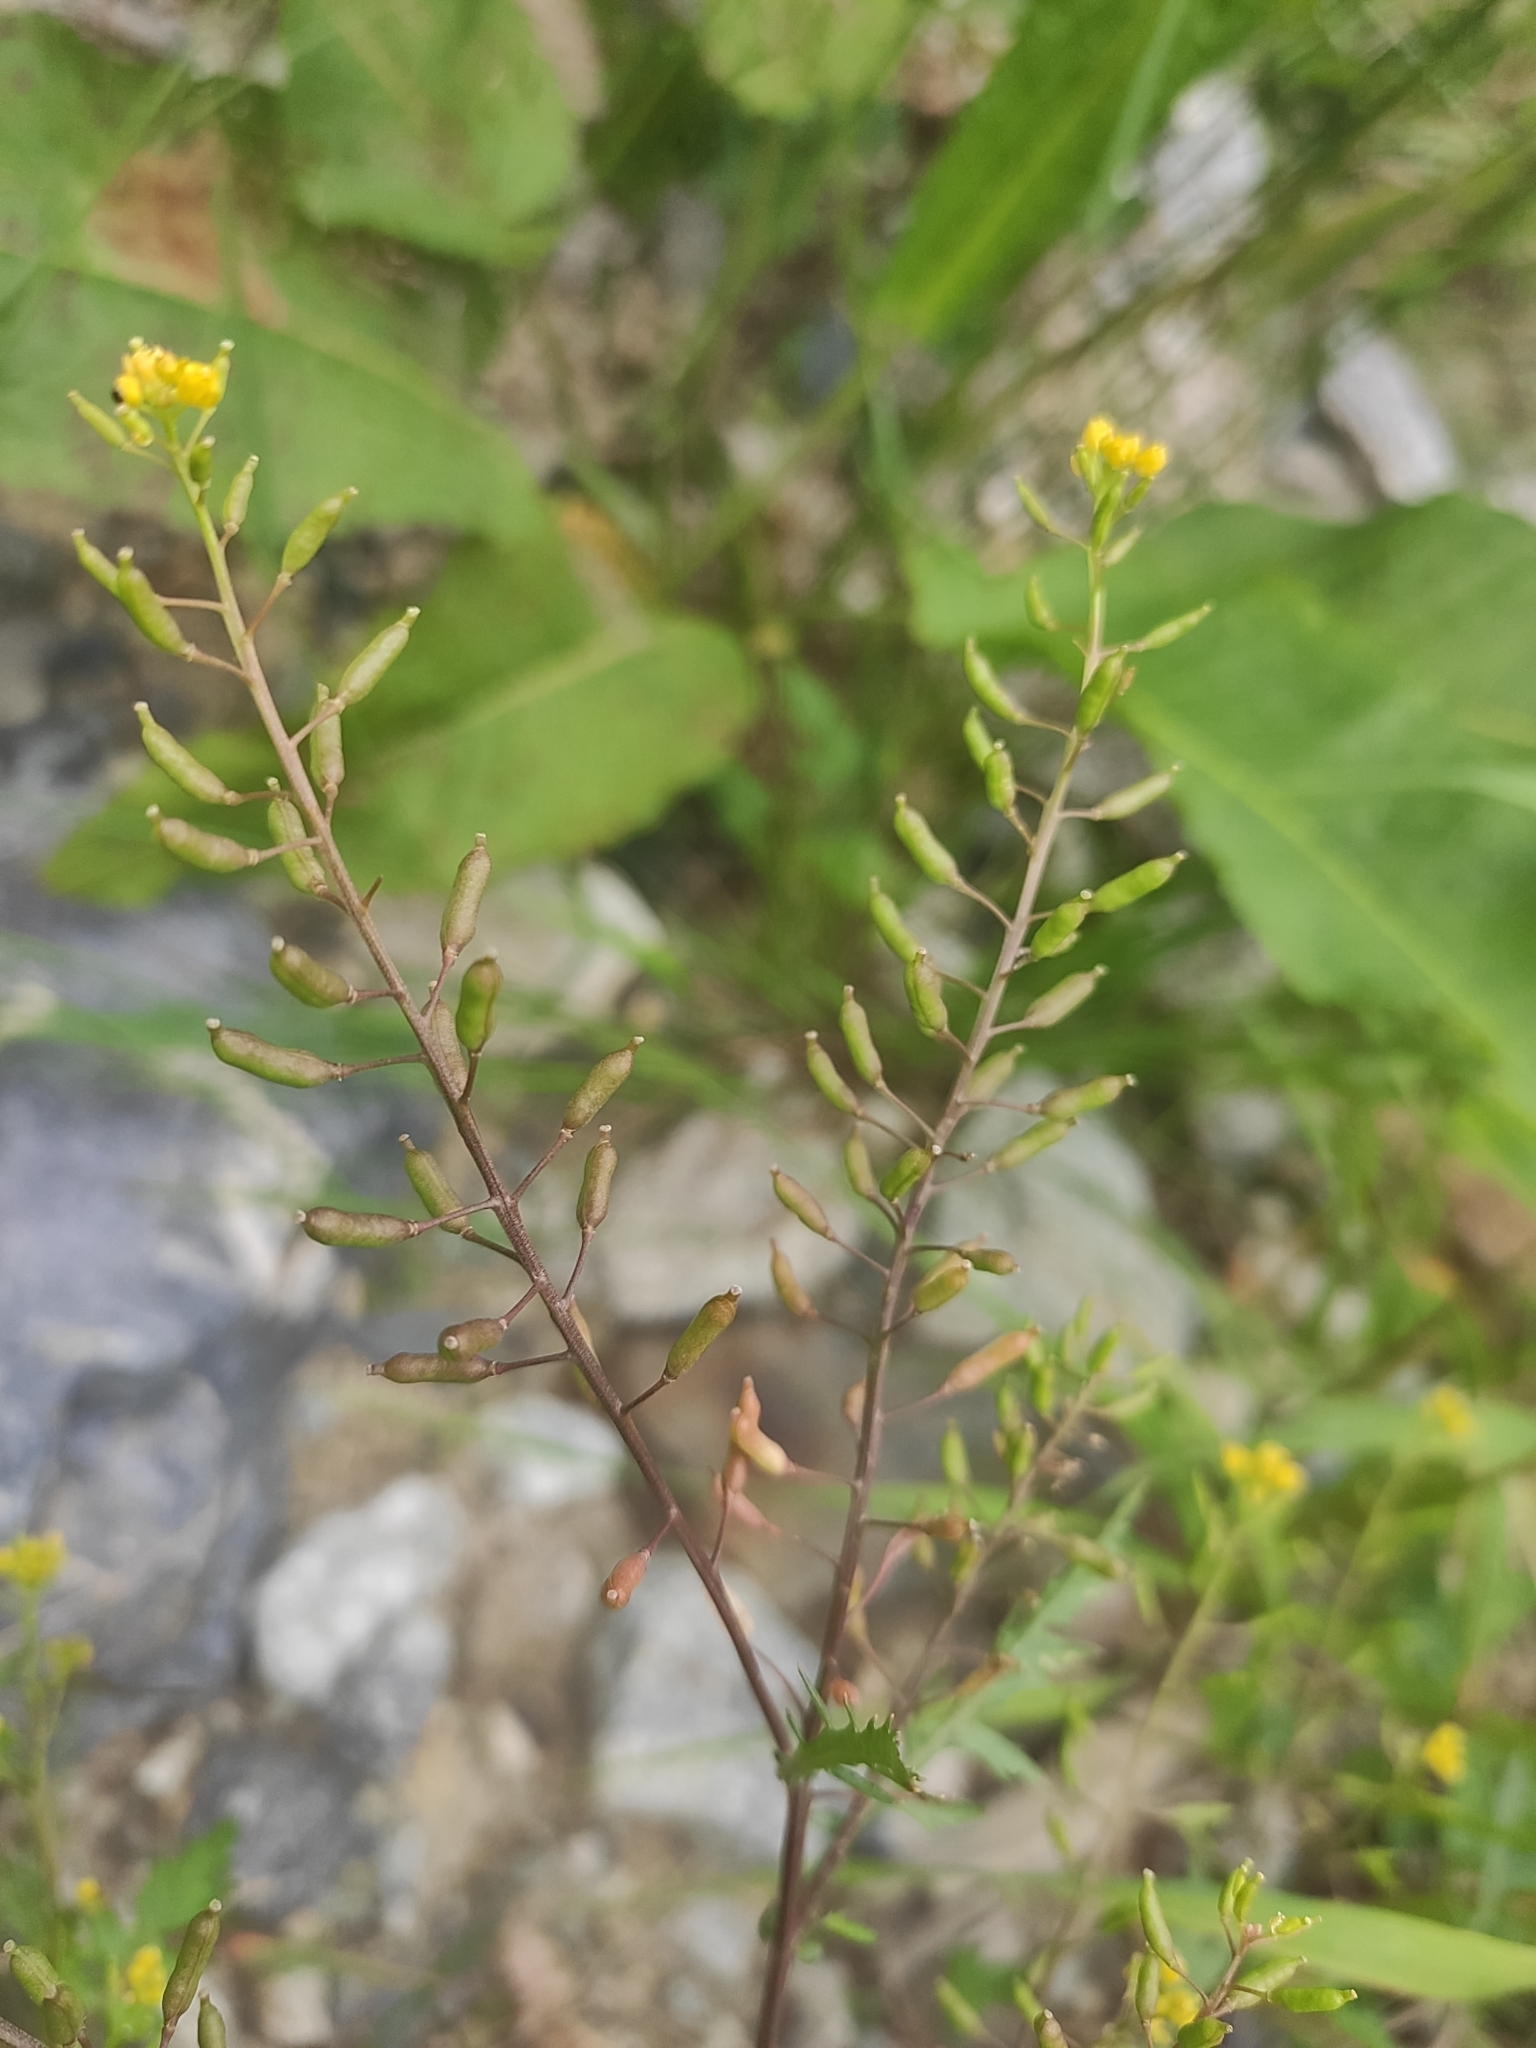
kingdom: Plantae
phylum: Tracheophyta
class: Magnoliopsida
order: Brassicales
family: Brassicaceae
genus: Rorippa
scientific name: Rorippa palustris
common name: Marsh yellow-cress
